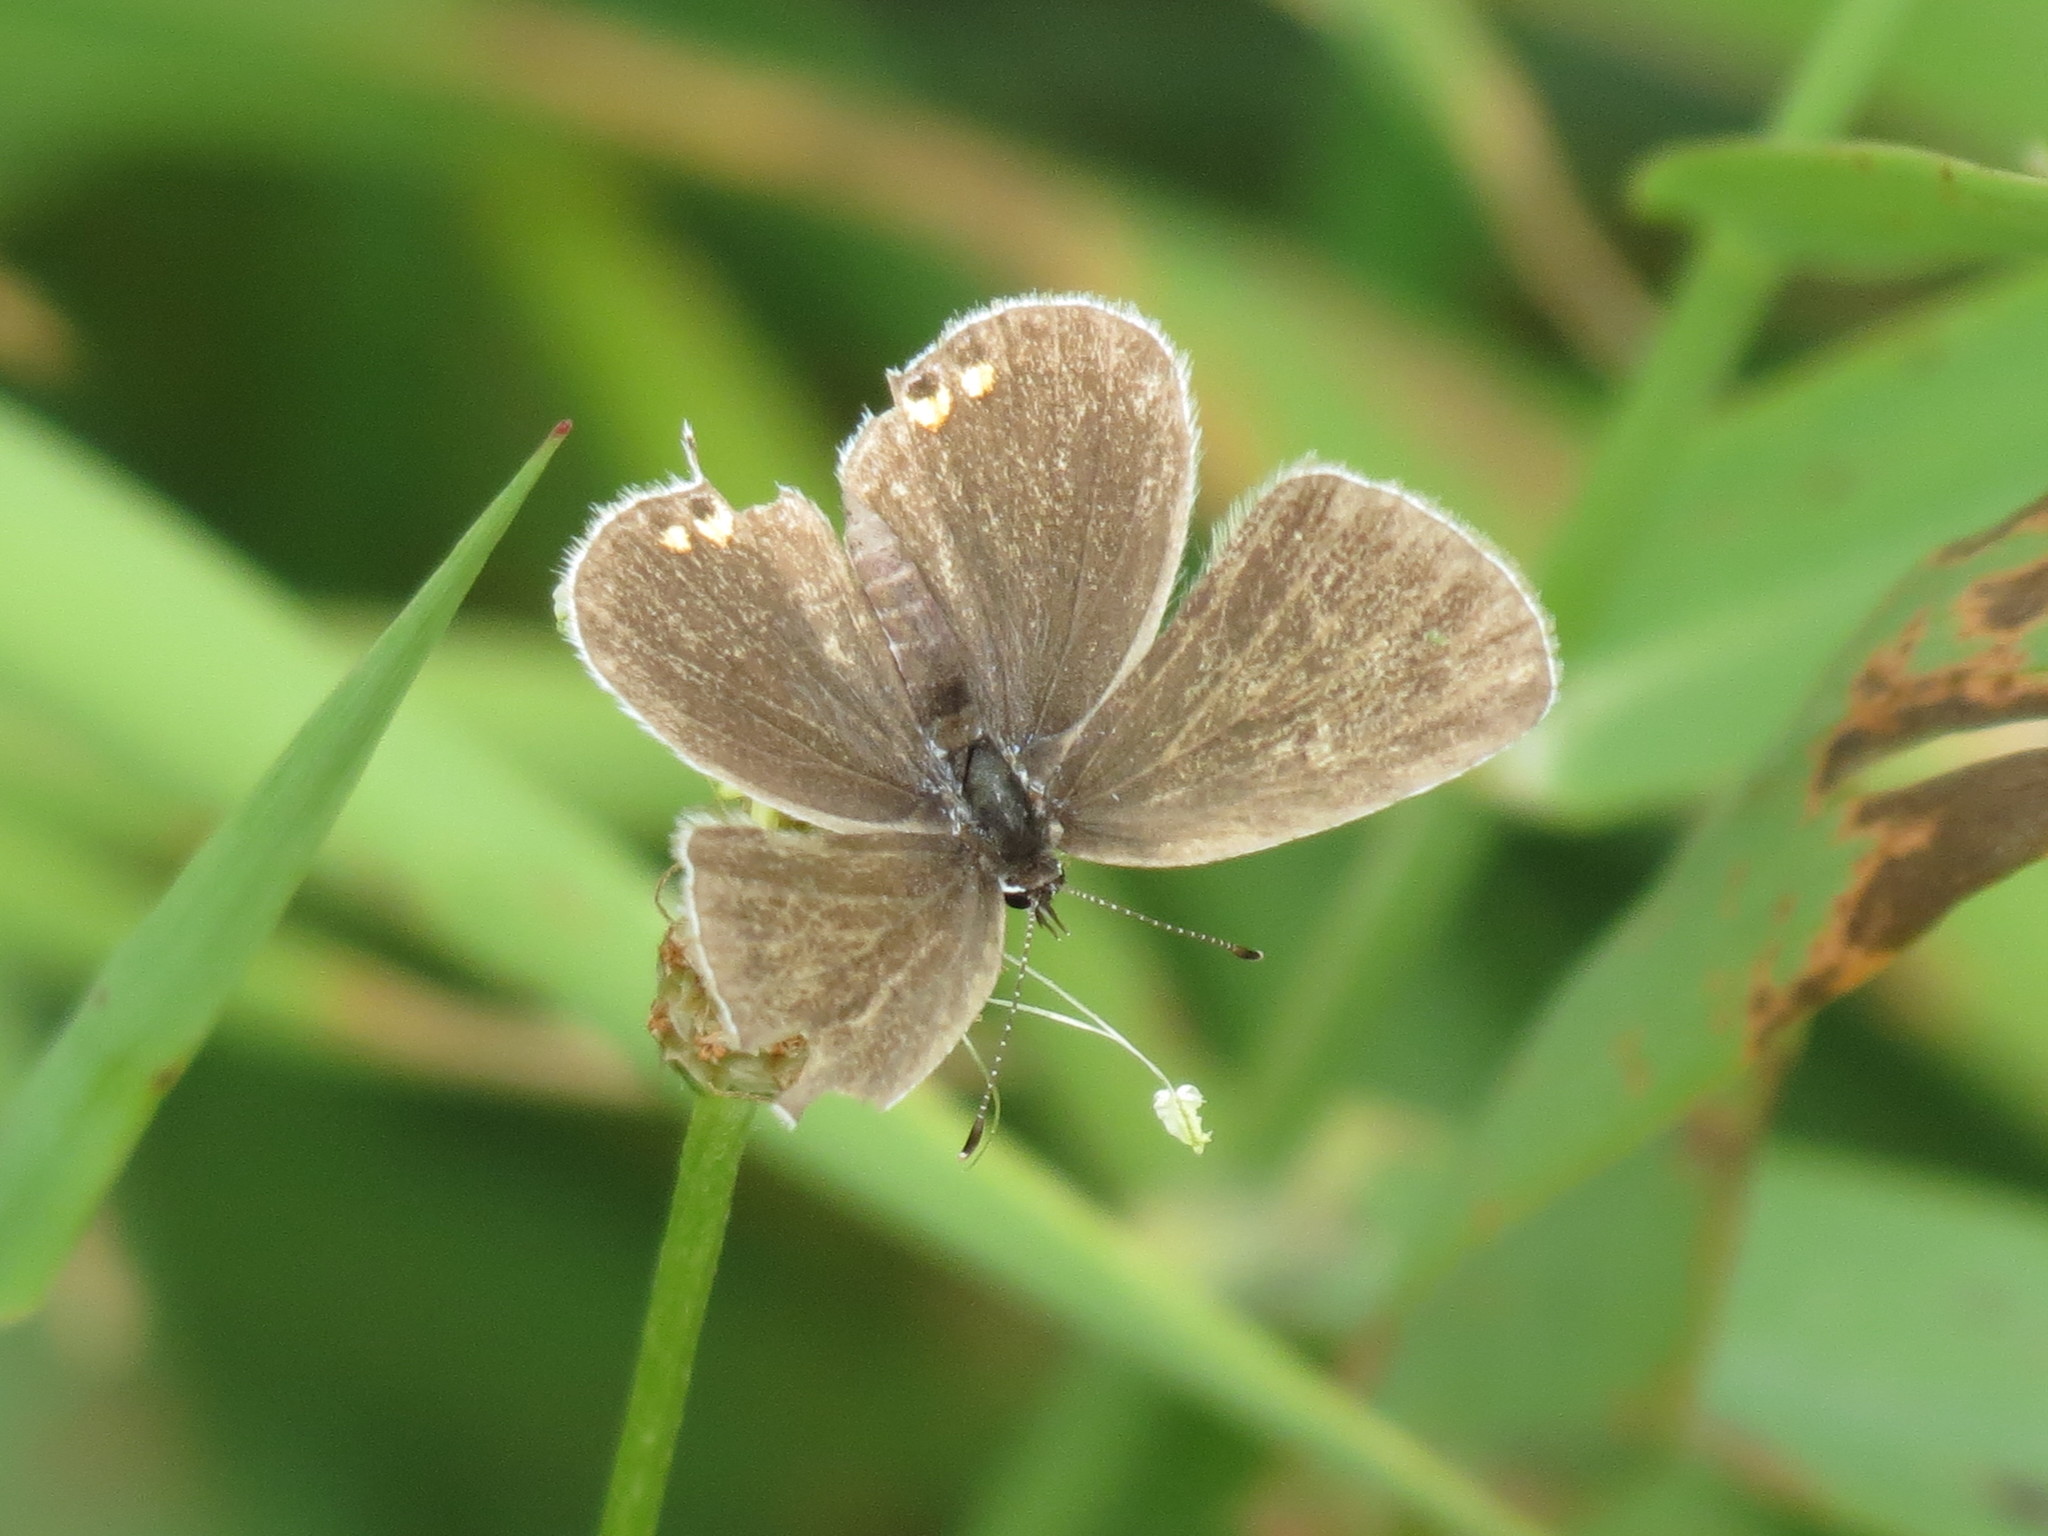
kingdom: Animalia
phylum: Arthropoda
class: Insecta
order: Lepidoptera
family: Lycaenidae
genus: Elkalyce
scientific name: Elkalyce comyntas
